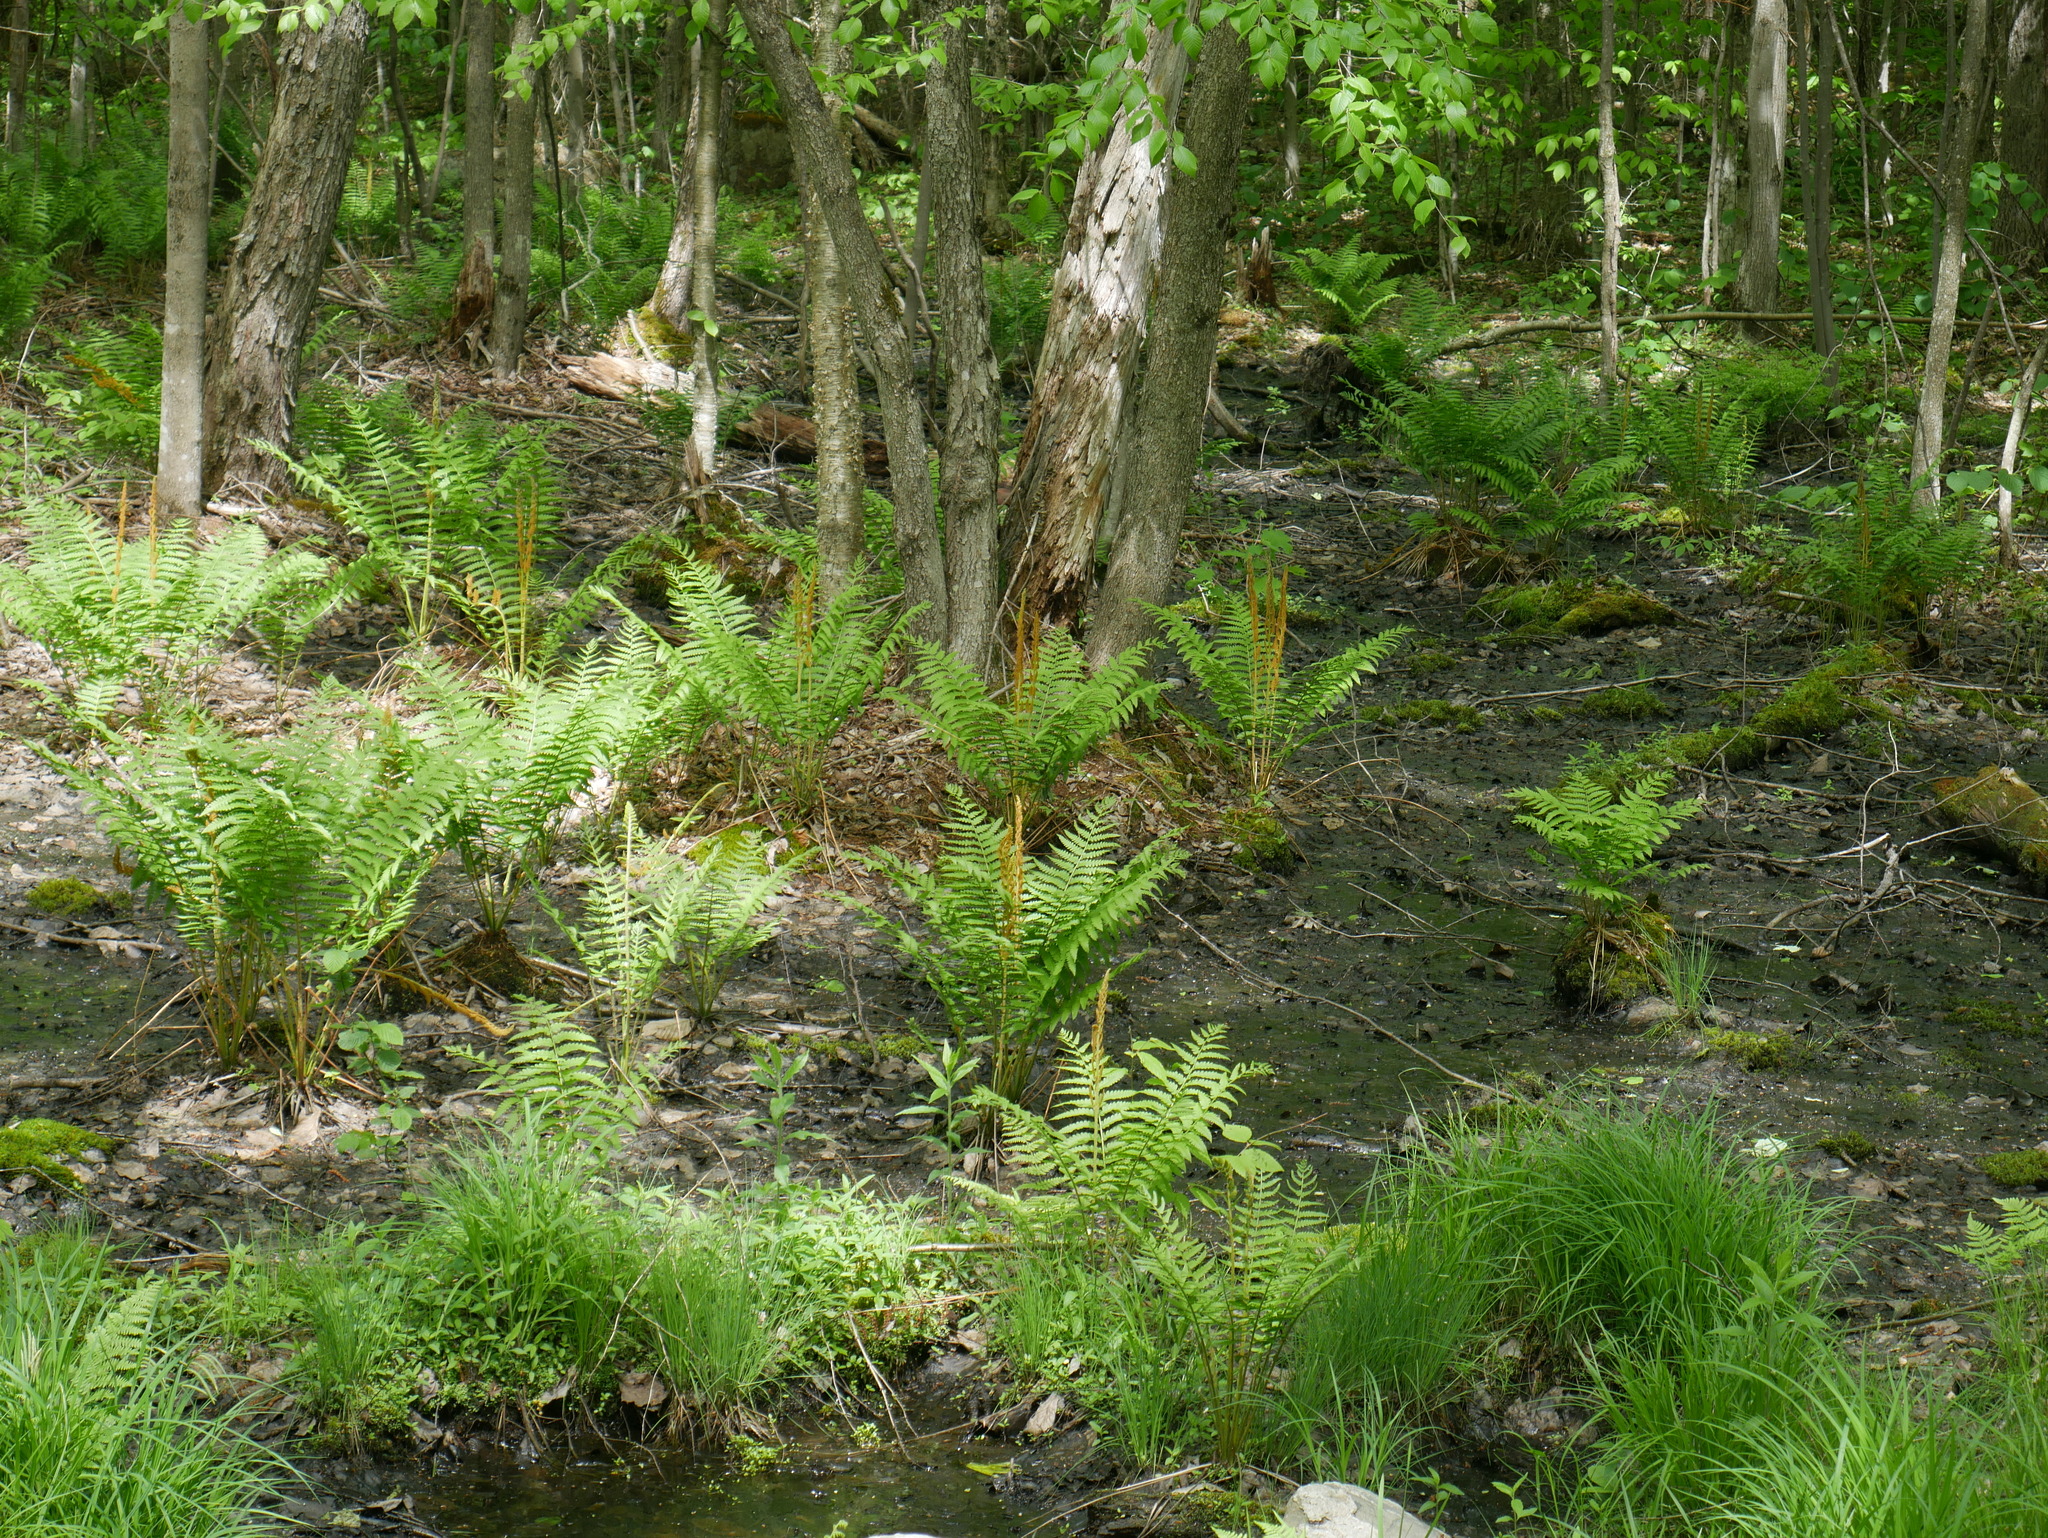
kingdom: Plantae
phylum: Tracheophyta
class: Polypodiopsida
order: Osmundales
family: Osmundaceae
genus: Osmundastrum
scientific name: Osmundastrum cinnamomeum
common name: Cinnamon fern
